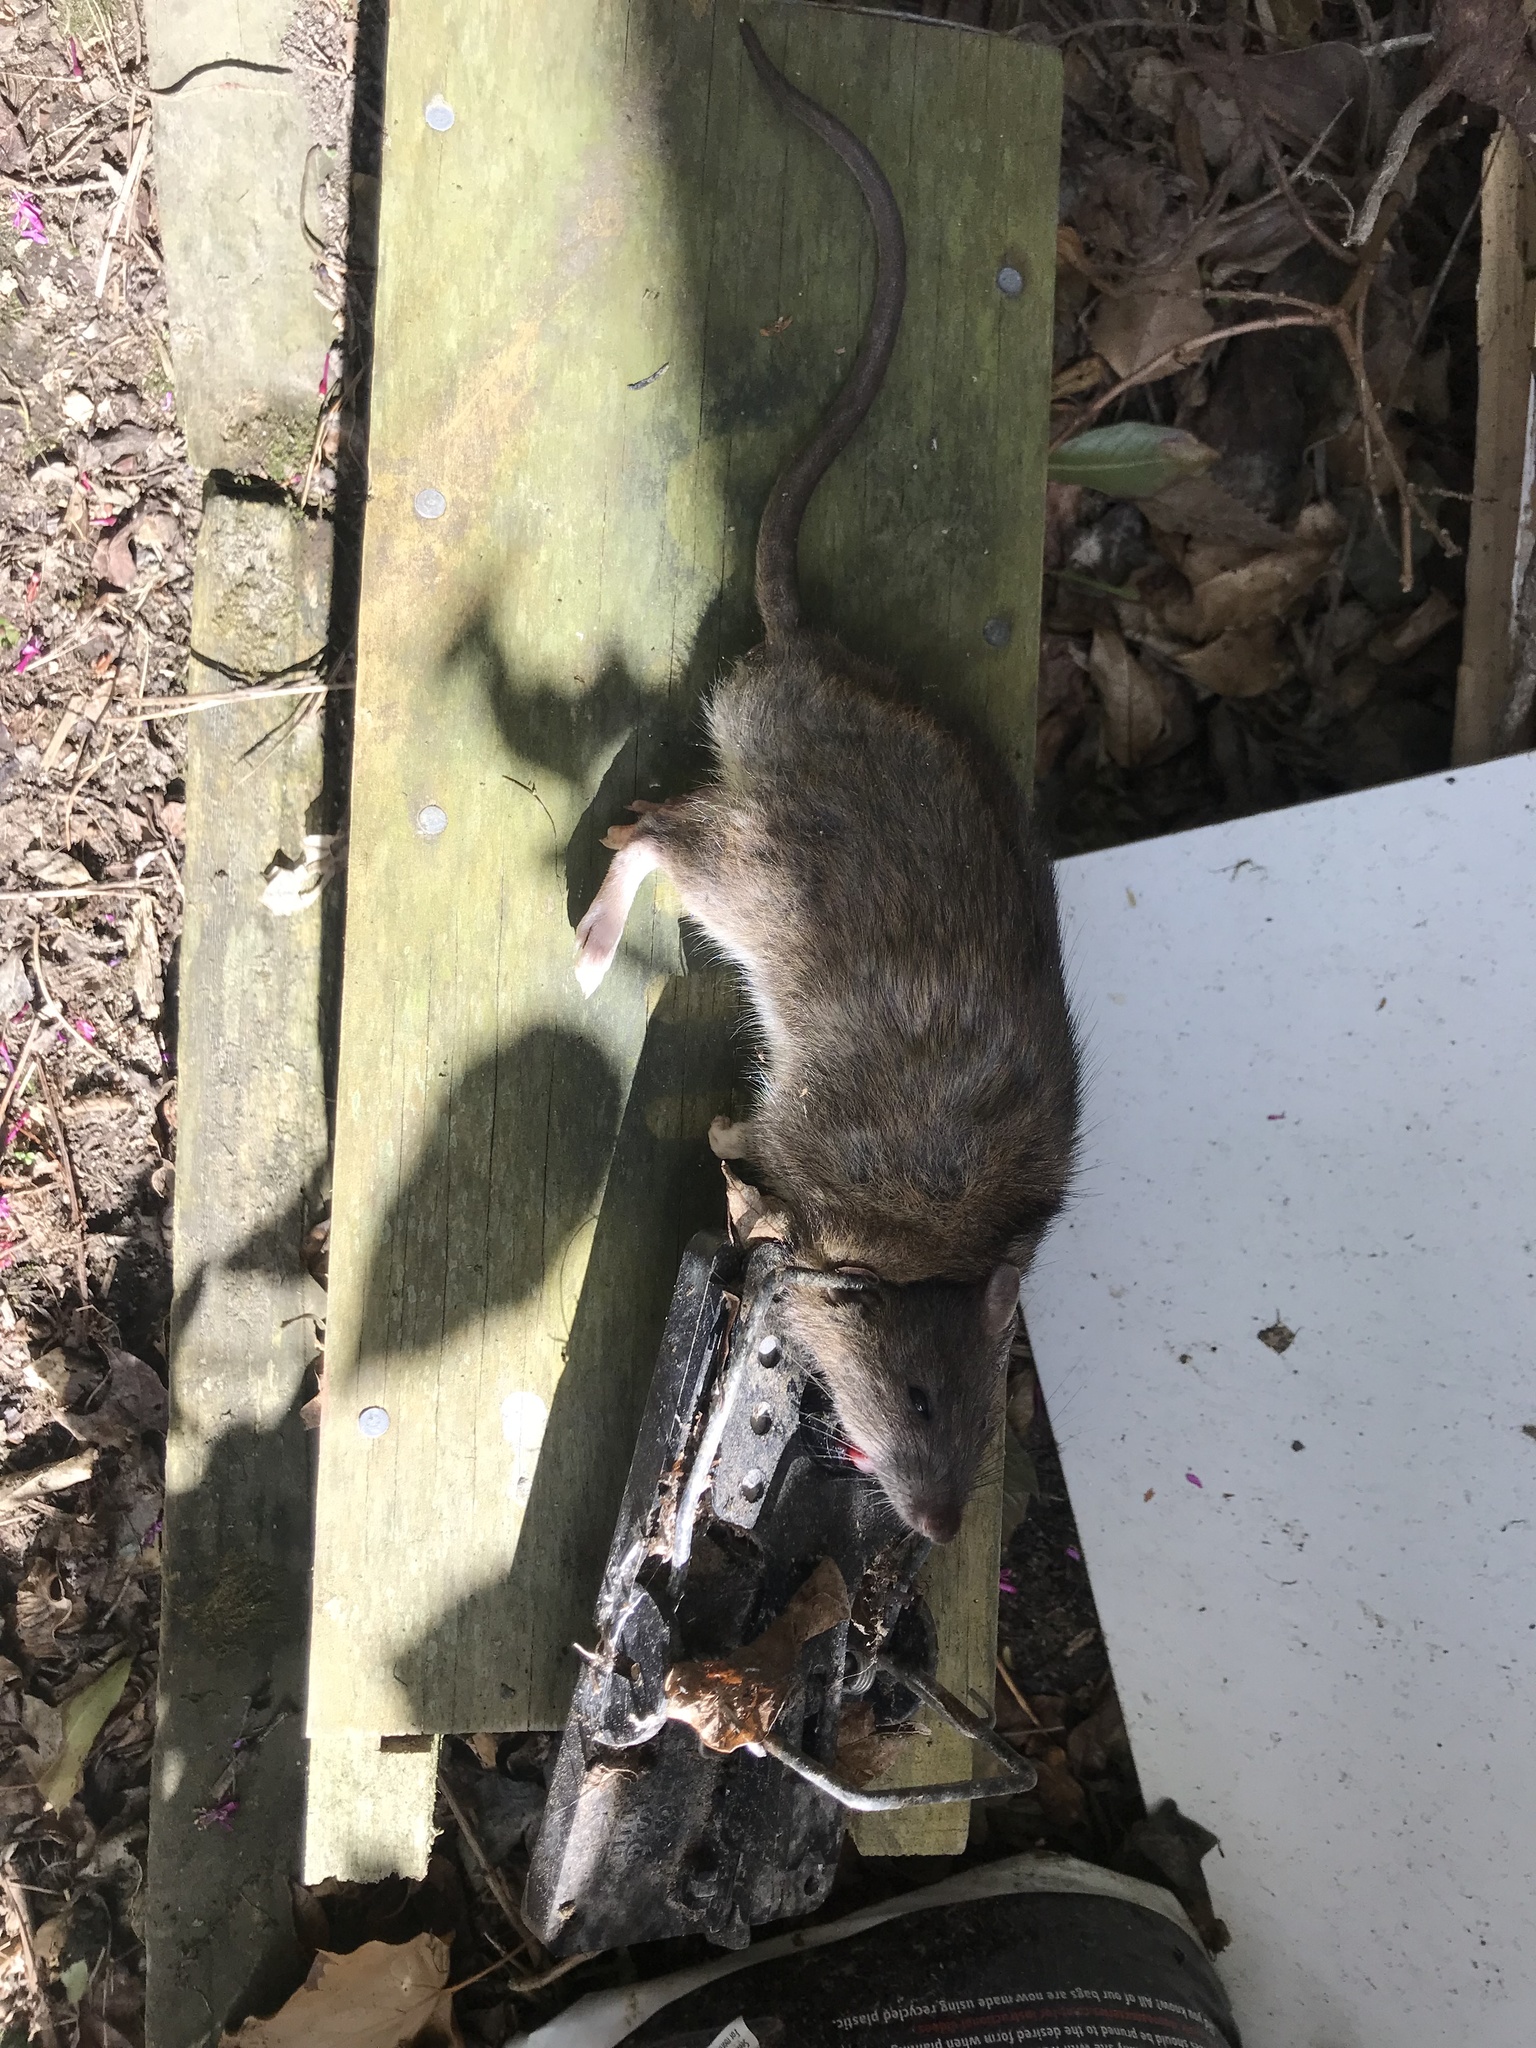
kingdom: Animalia
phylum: Chordata
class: Mammalia
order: Rodentia
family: Muridae
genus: Rattus
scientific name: Rattus norvegicus
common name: Brown rat
